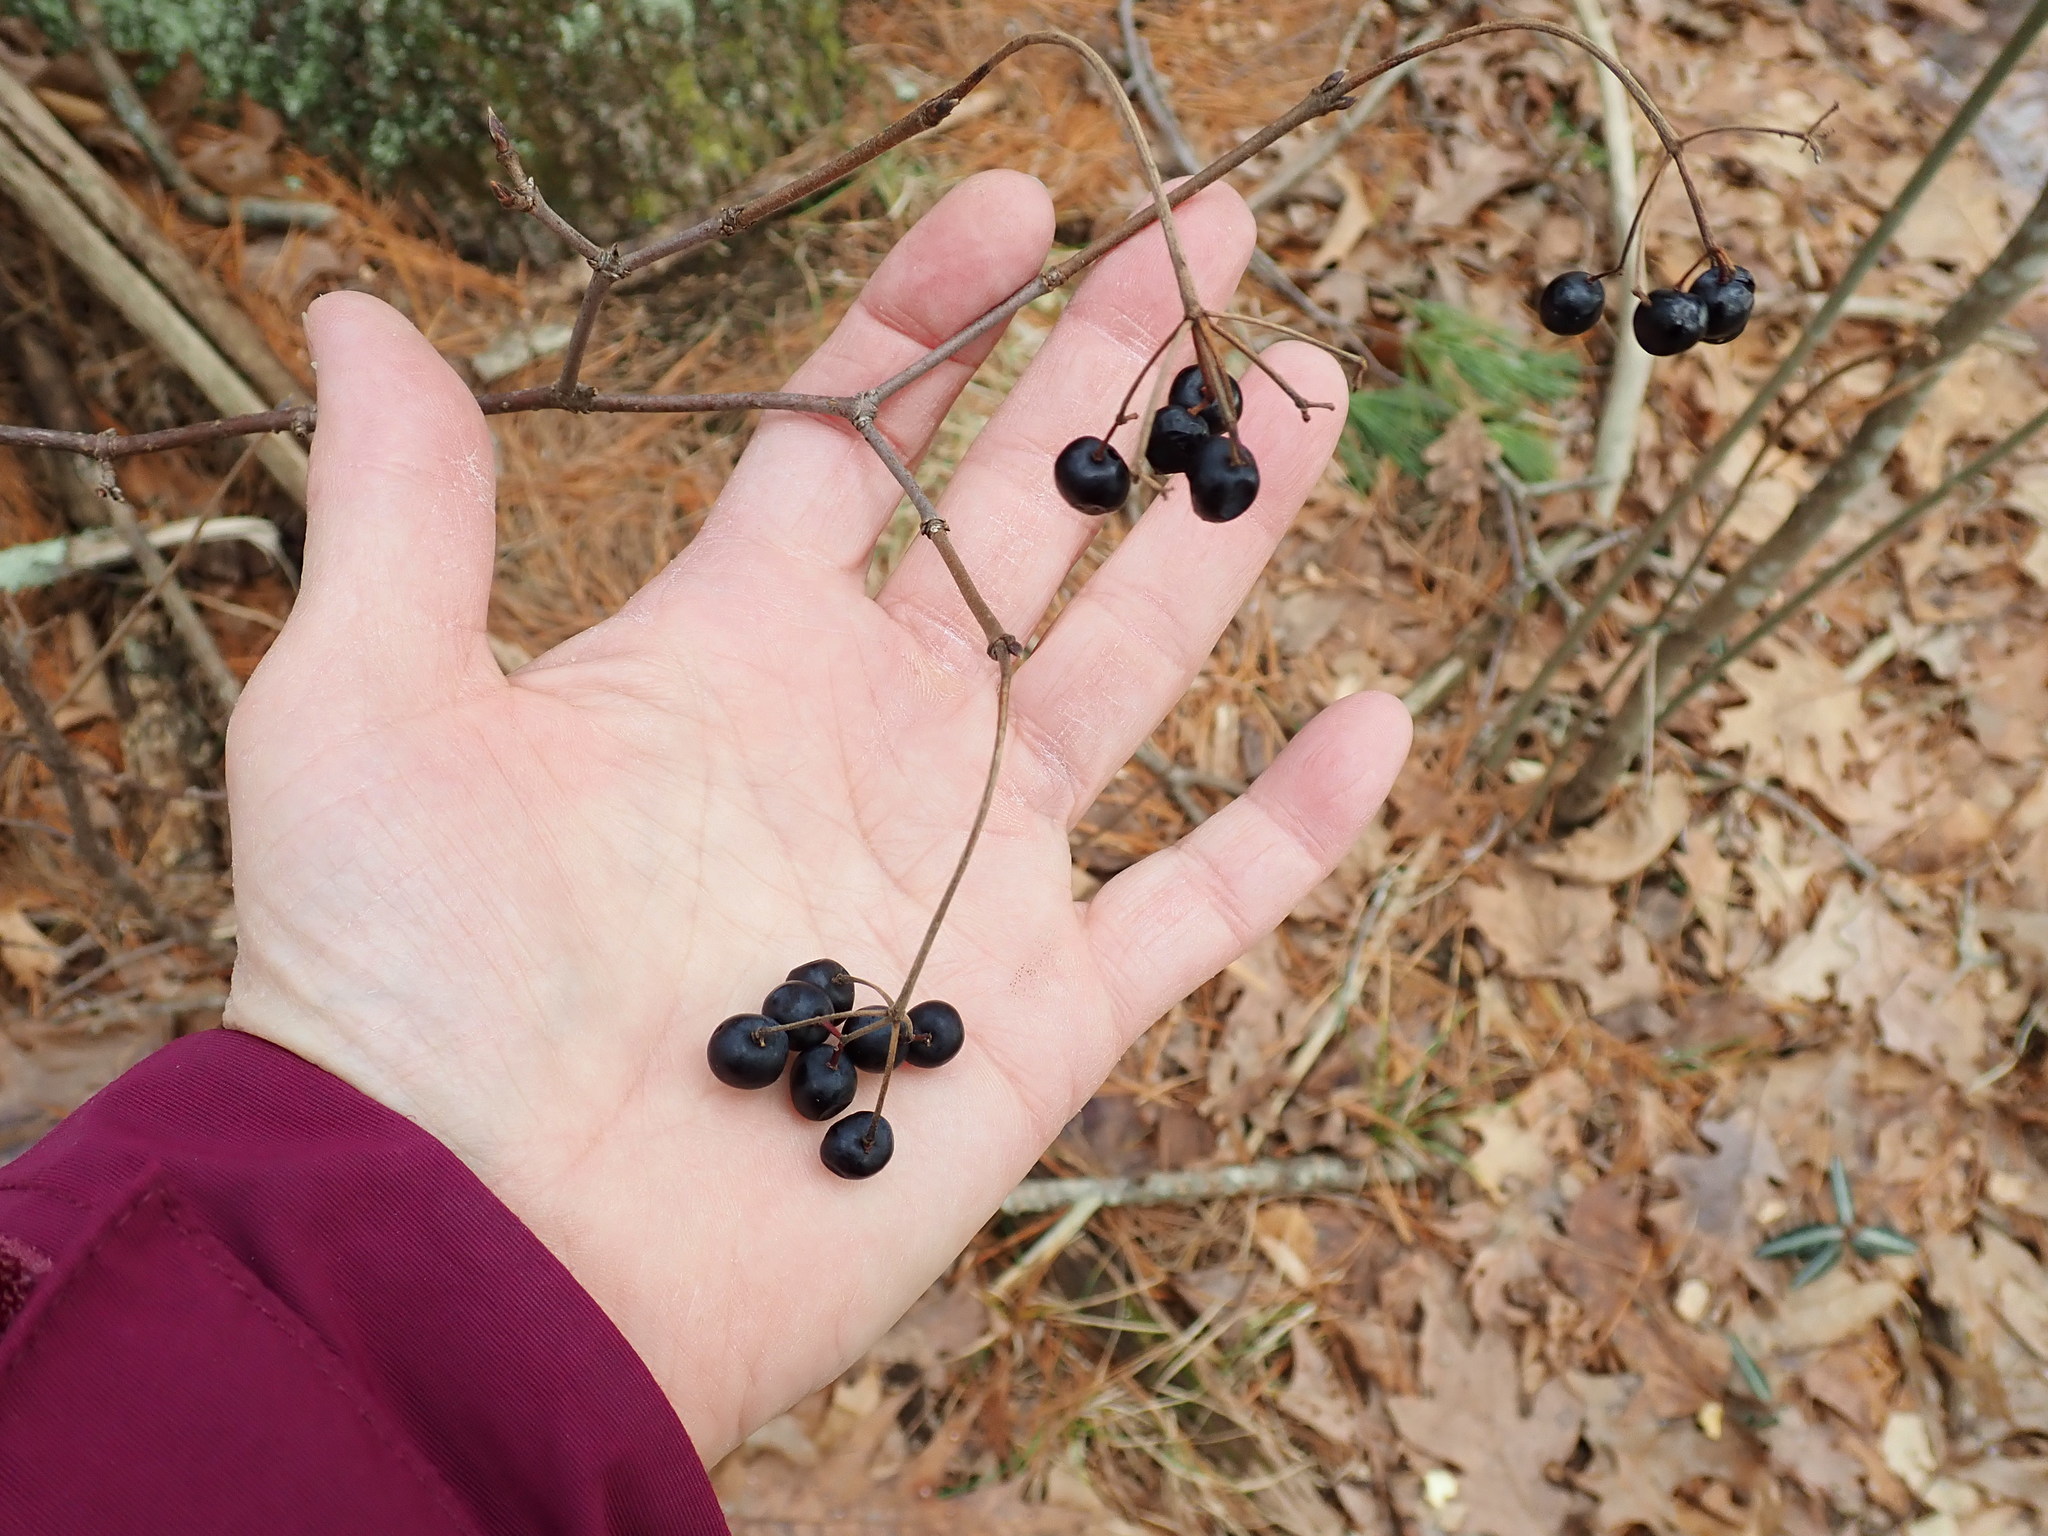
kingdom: Plantae
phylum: Tracheophyta
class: Magnoliopsida
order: Dipsacales
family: Viburnaceae
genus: Viburnum
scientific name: Viburnum acerifolium
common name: Dockmackie
